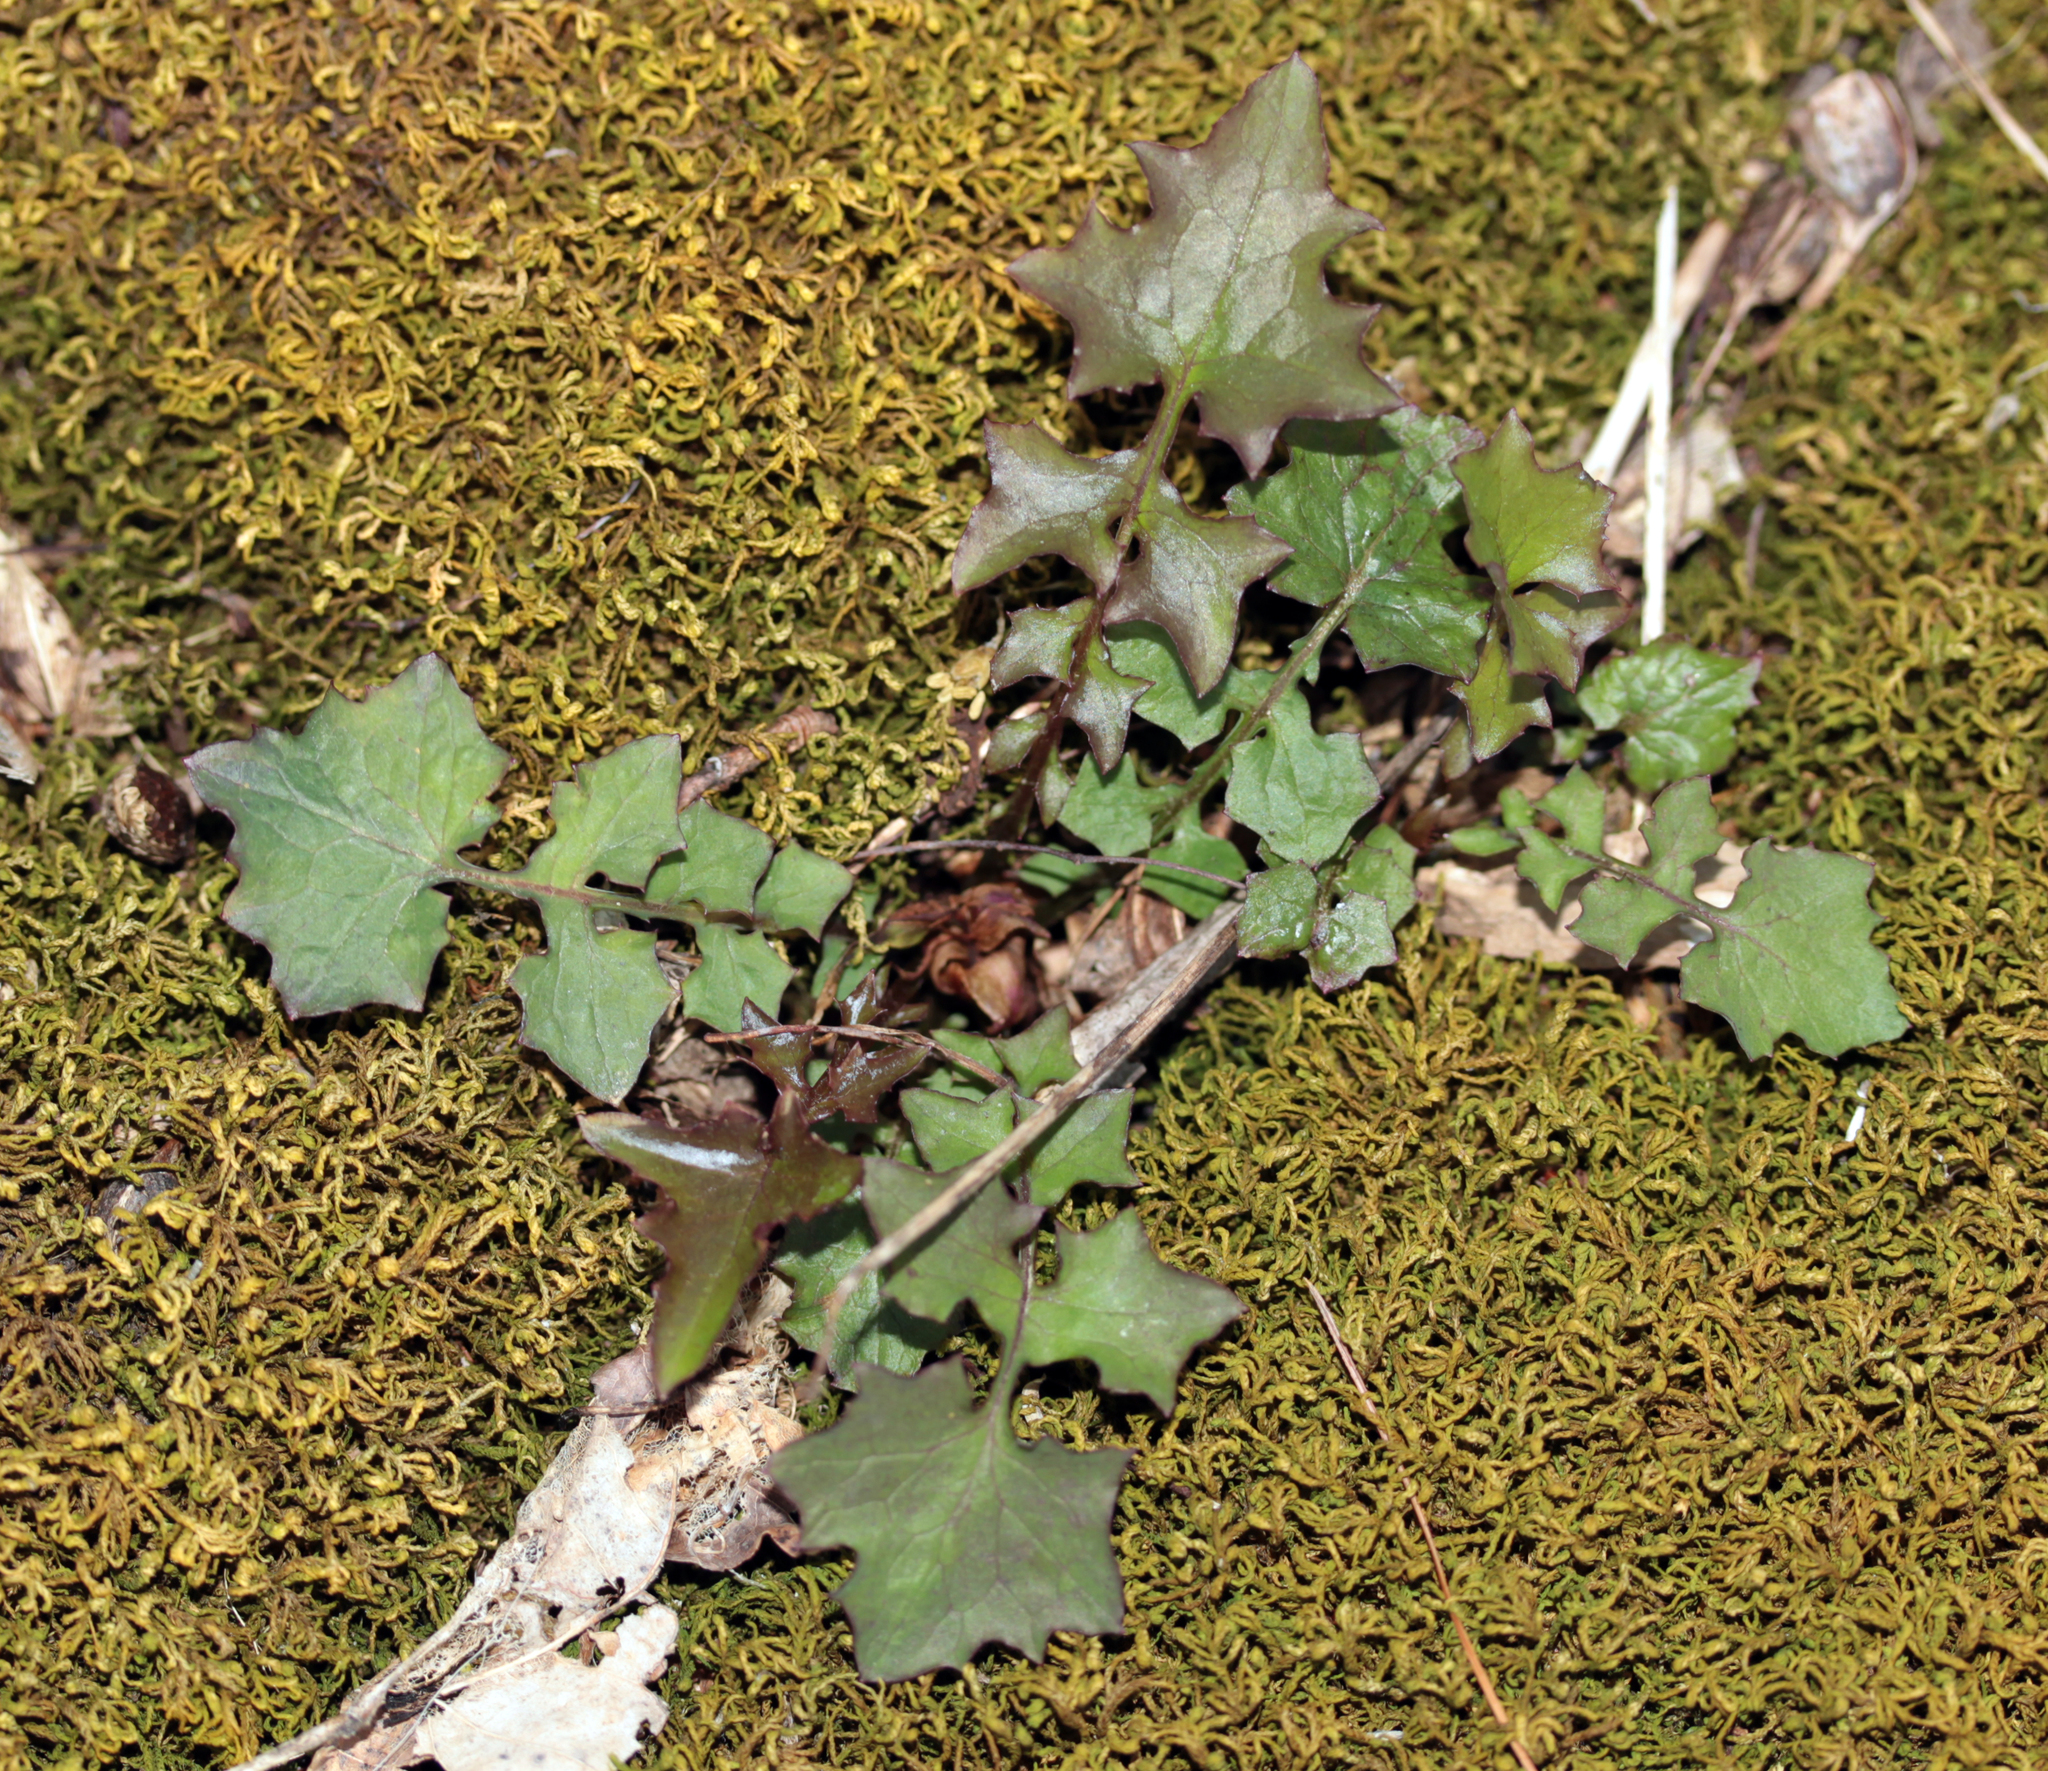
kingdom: Plantae
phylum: Tracheophyta
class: Magnoliopsida
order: Asterales
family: Asteraceae
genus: Mycelis
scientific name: Mycelis muralis
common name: Wall lettuce
